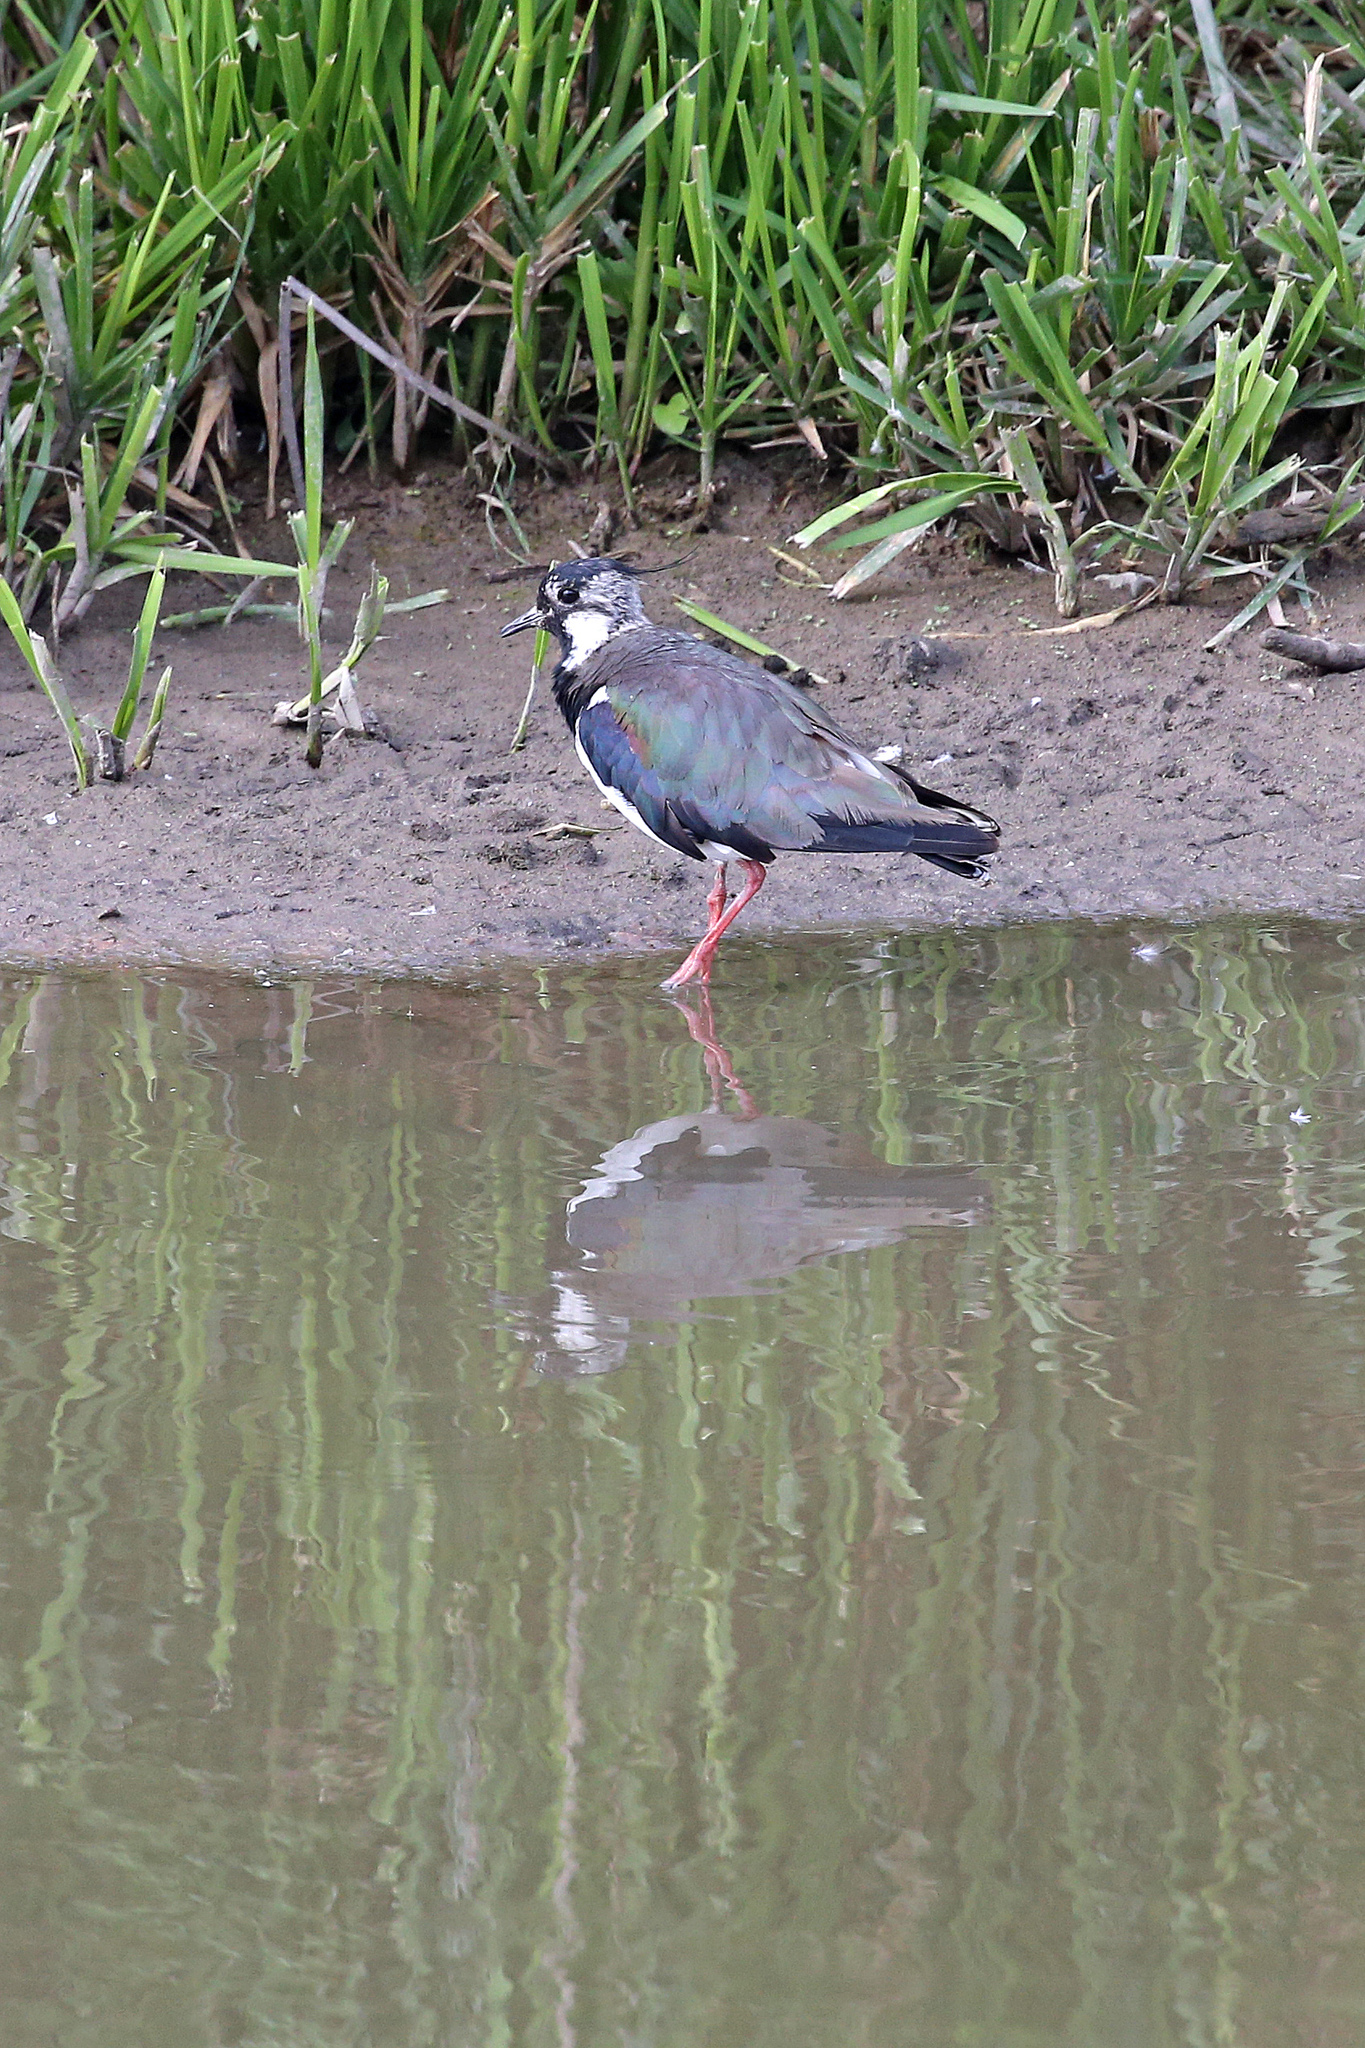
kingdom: Animalia
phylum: Chordata
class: Aves
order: Charadriiformes
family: Charadriidae
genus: Vanellus
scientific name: Vanellus vanellus
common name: Northern lapwing
